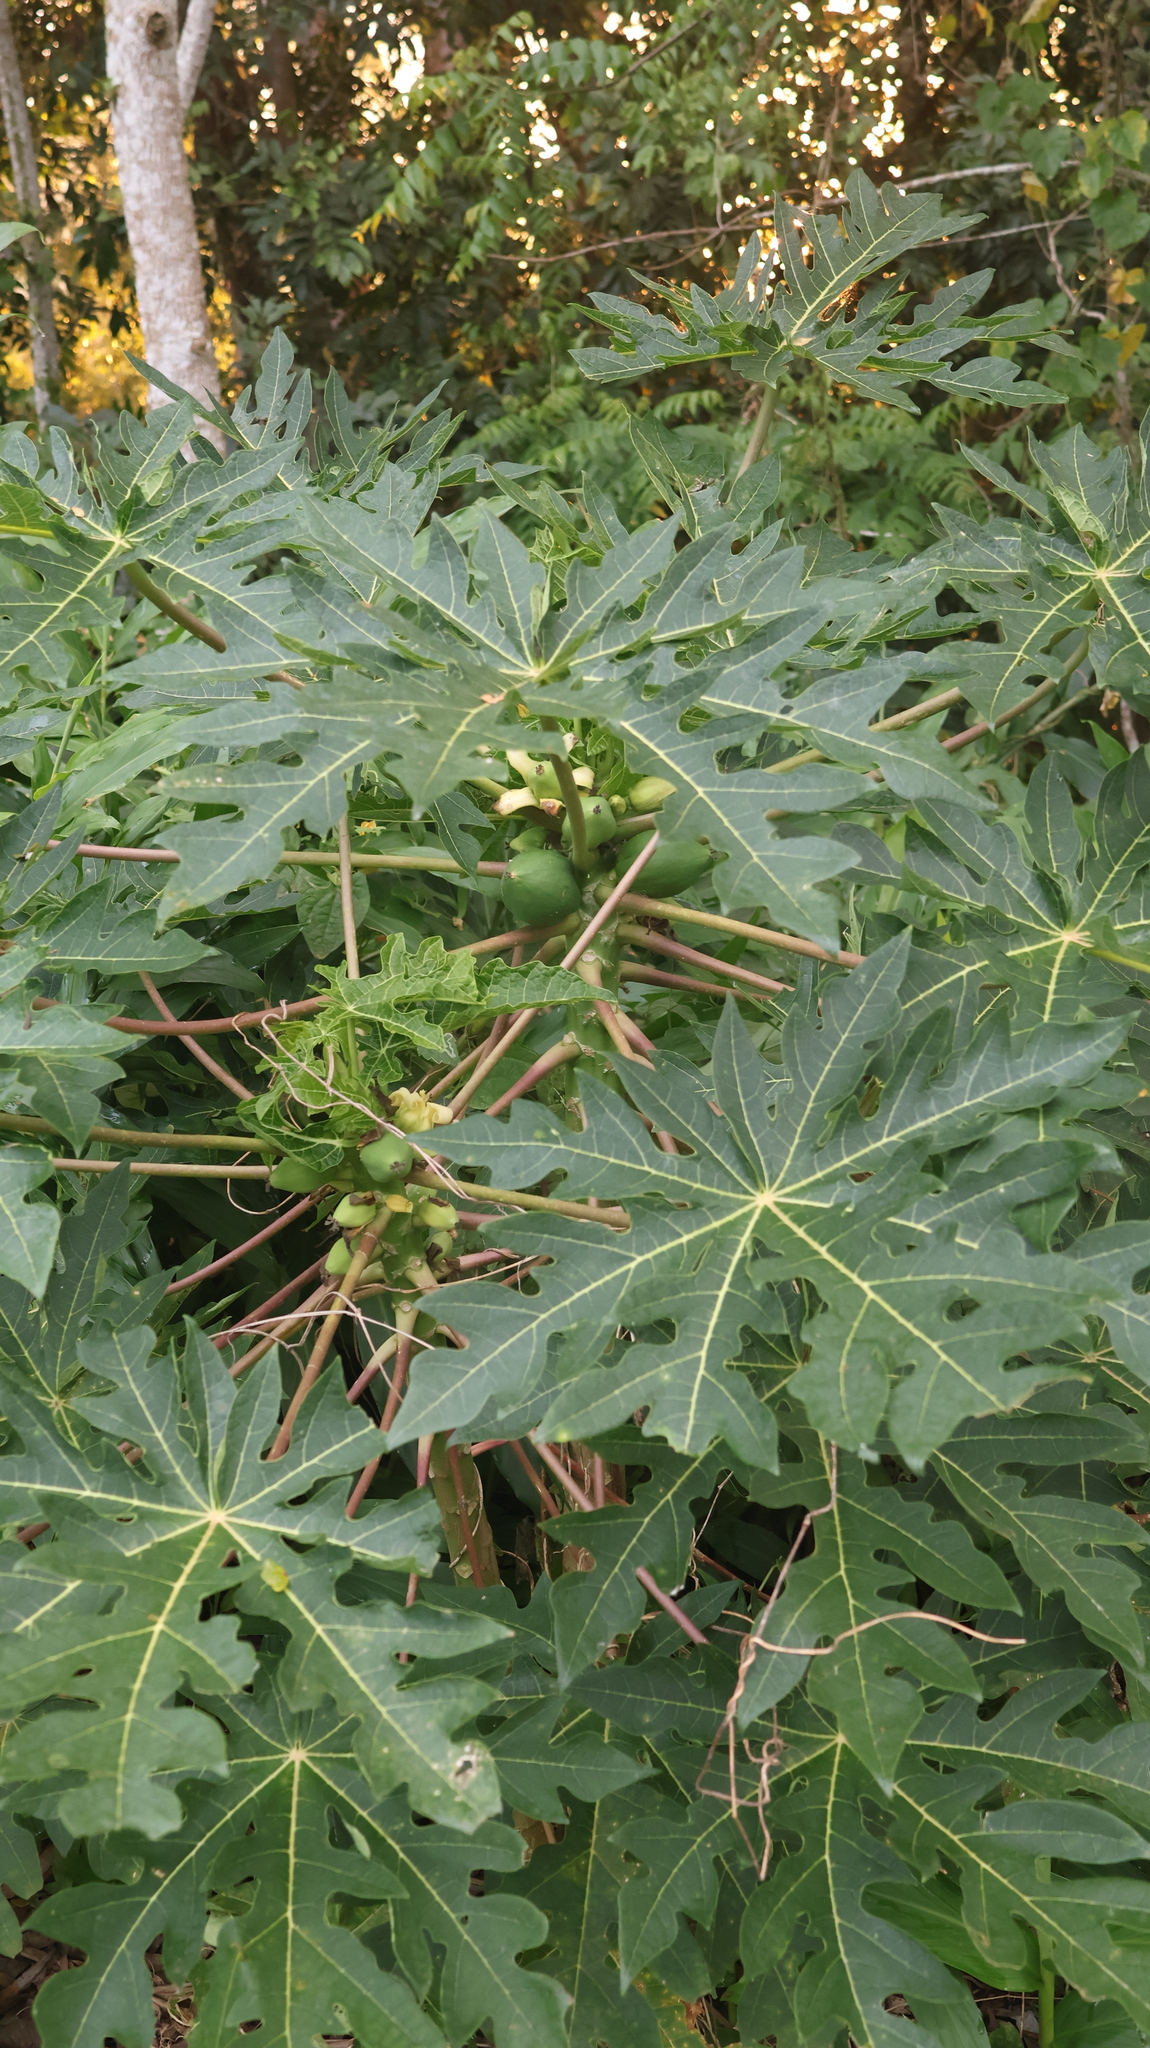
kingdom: Plantae
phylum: Tracheophyta
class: Magnoliopsida
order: Brassicales
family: Caricaceae
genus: Carica
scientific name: Carica papaya
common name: Papaya
